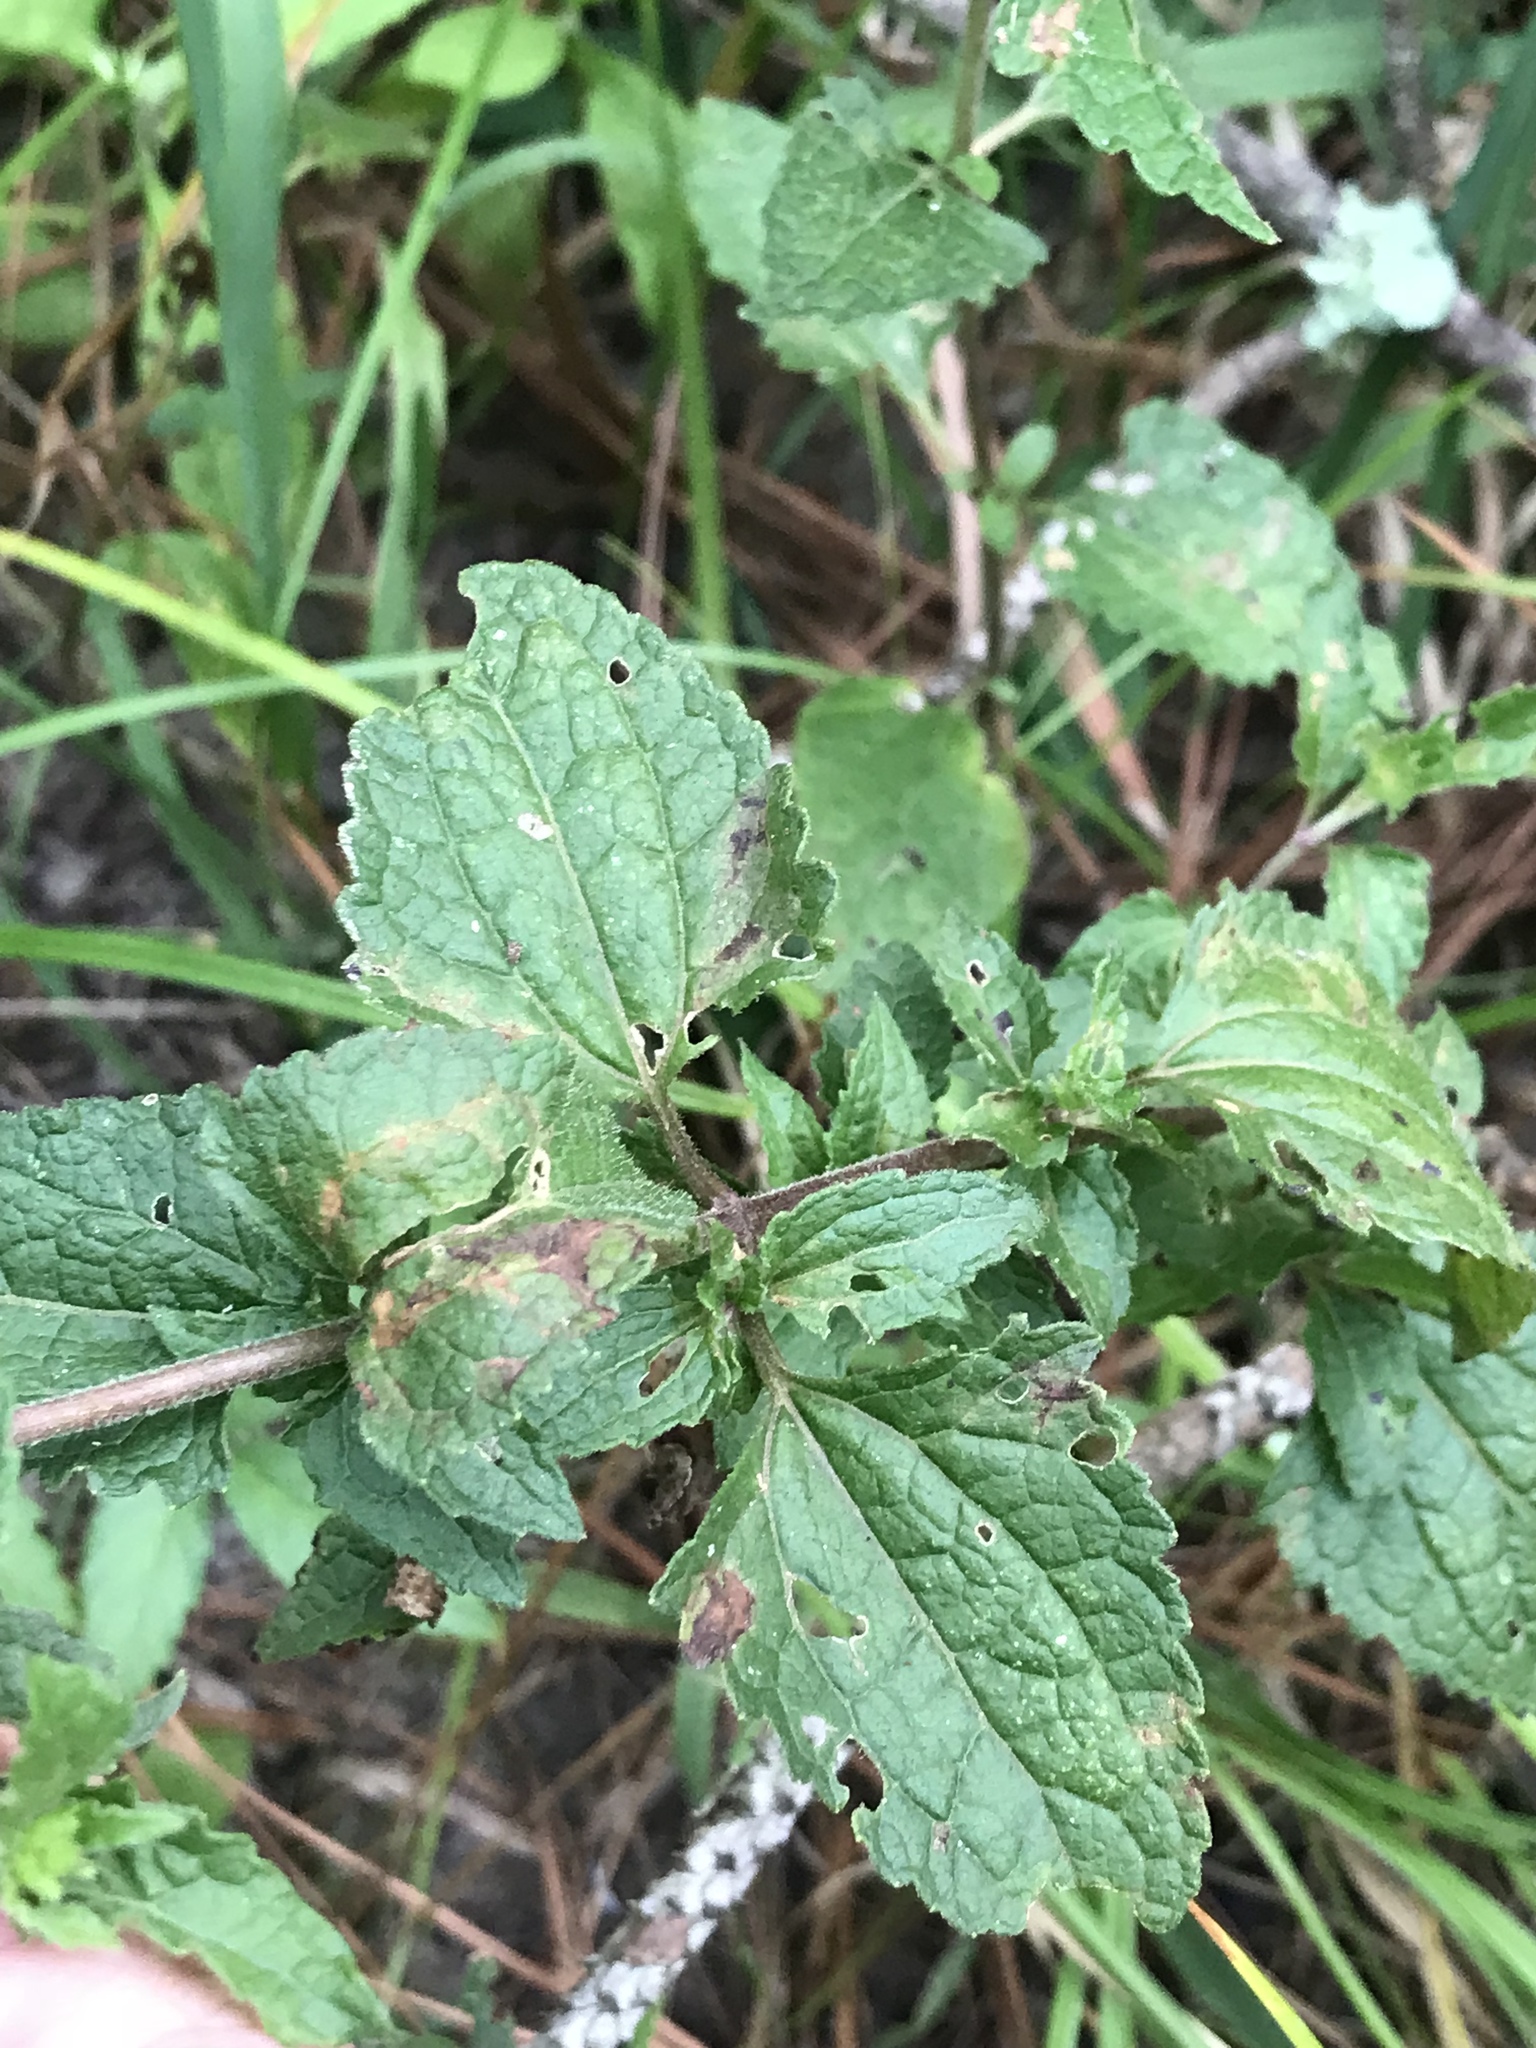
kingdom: Plantae
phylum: Tracheophyta
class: Magnoliopsida
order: Asterales
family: Asteraceae
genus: Conoclinium
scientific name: Conoclinium coelestinum
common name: Blue mistflower
